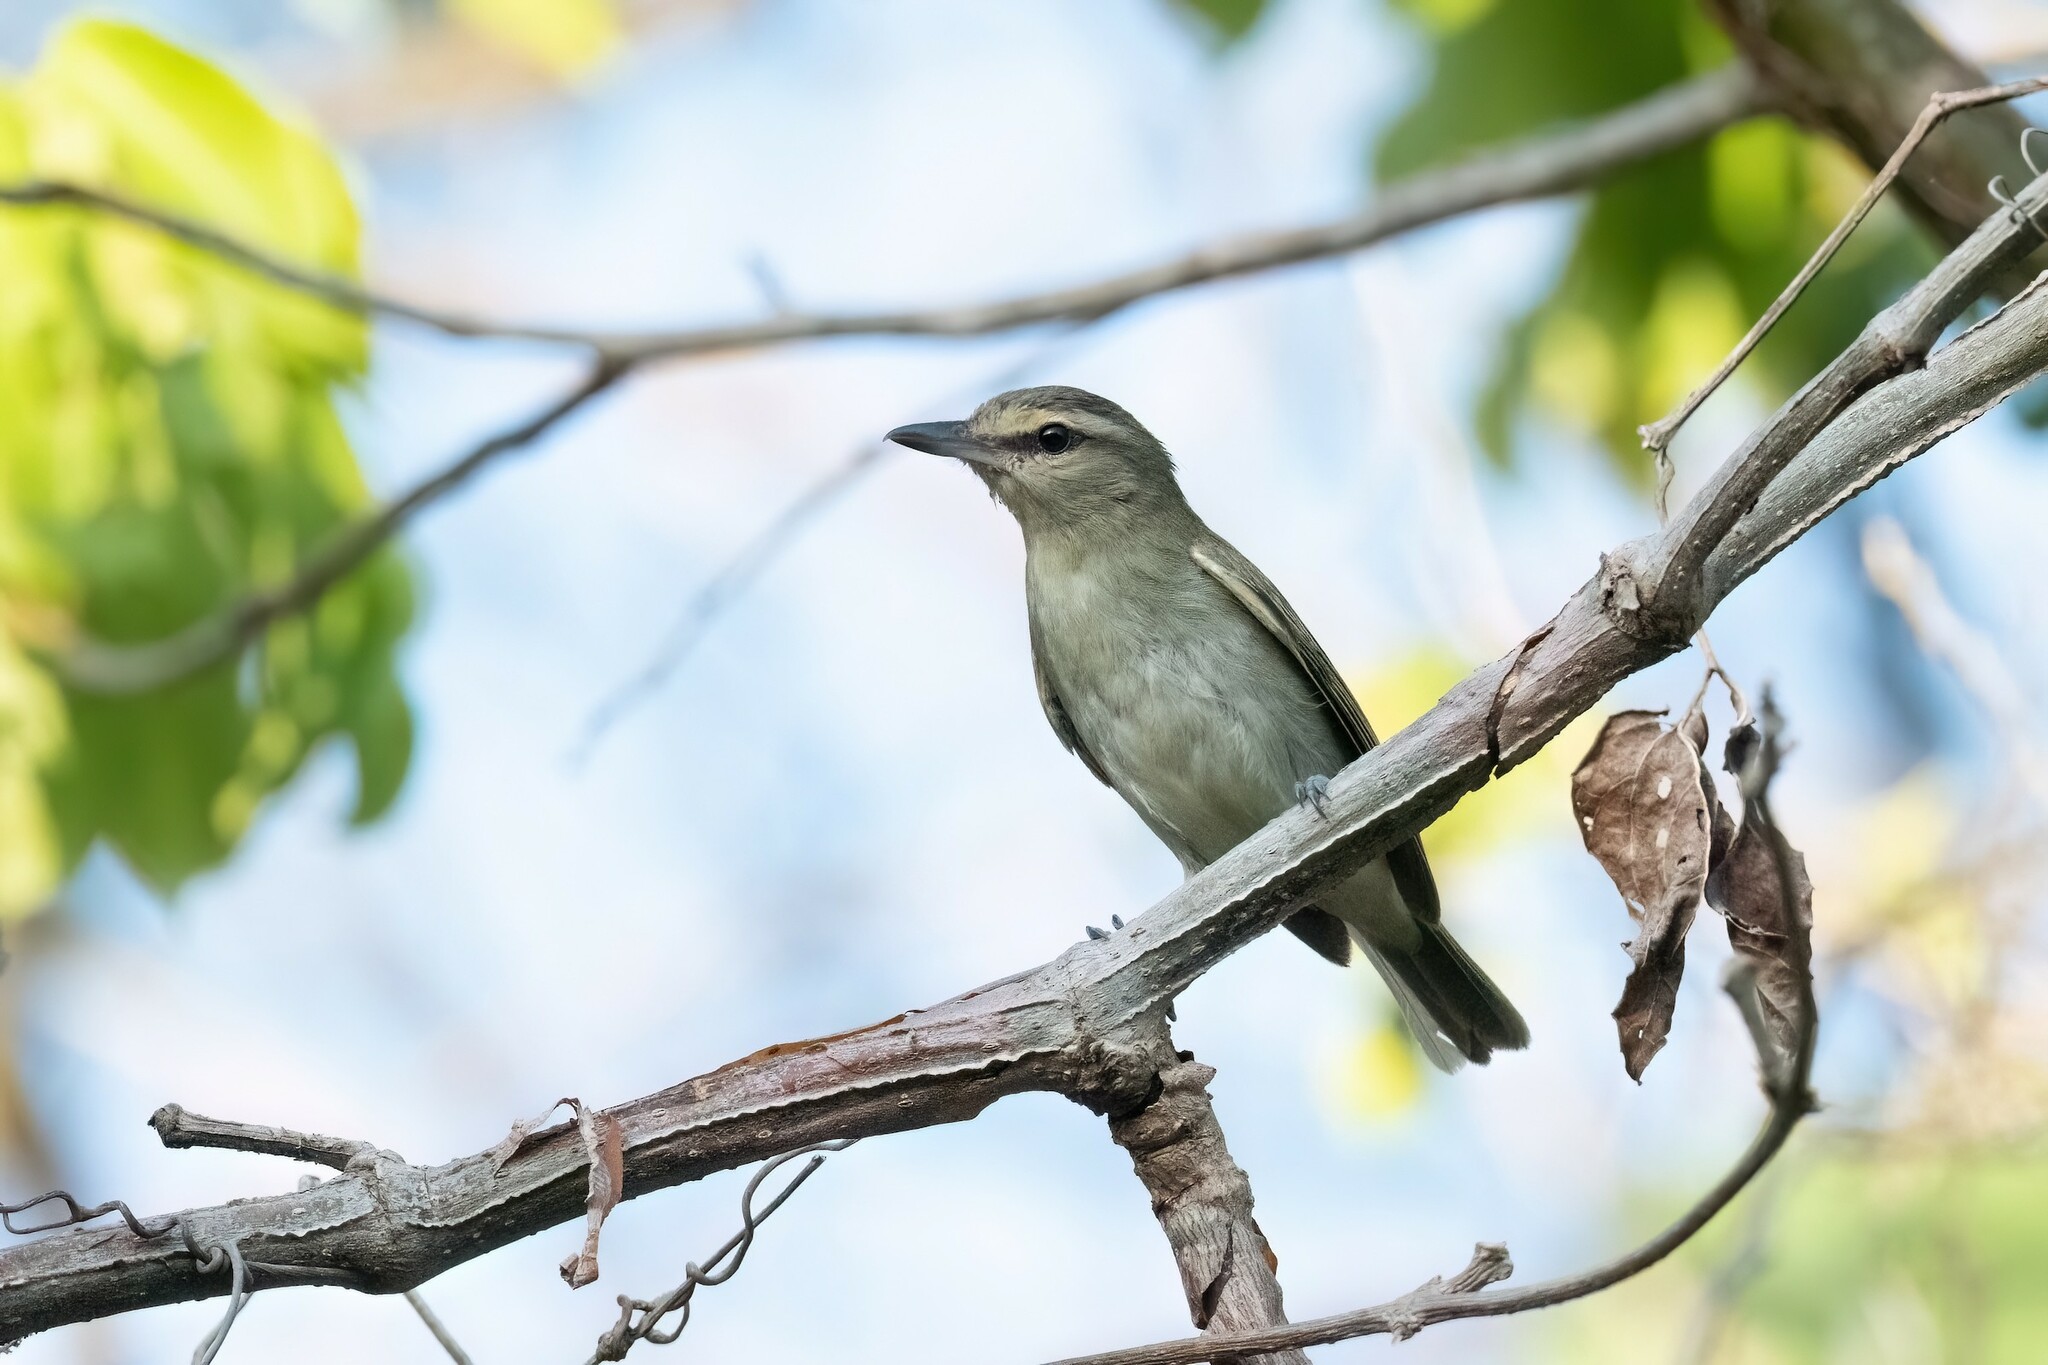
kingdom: Animalia
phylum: Chordata
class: Aves
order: Passeriformes
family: Vireonidae
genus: Vireo
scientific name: Vireo magister
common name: Yucatan vireo
